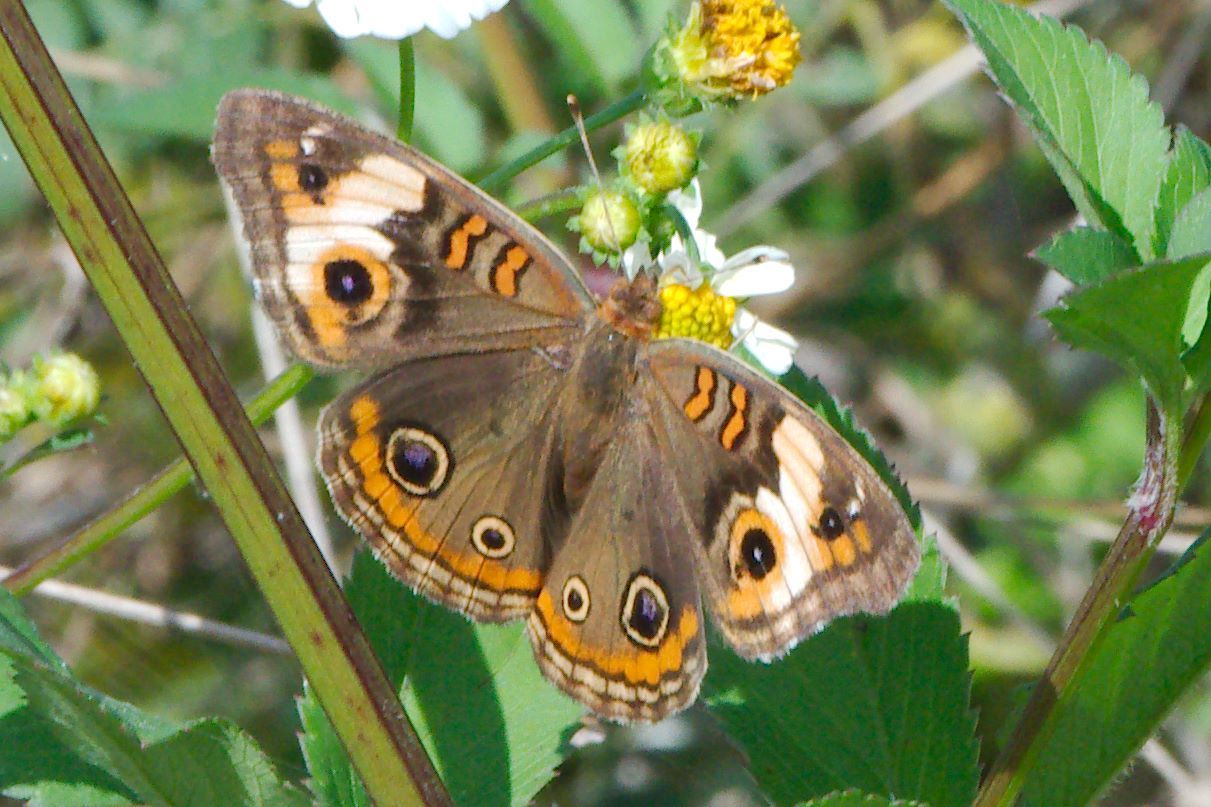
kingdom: Animalia
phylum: Arthropoda
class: Insecta
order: Lepidoptera
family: Nymphalidae
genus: Junonia
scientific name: Junonia lavinia
